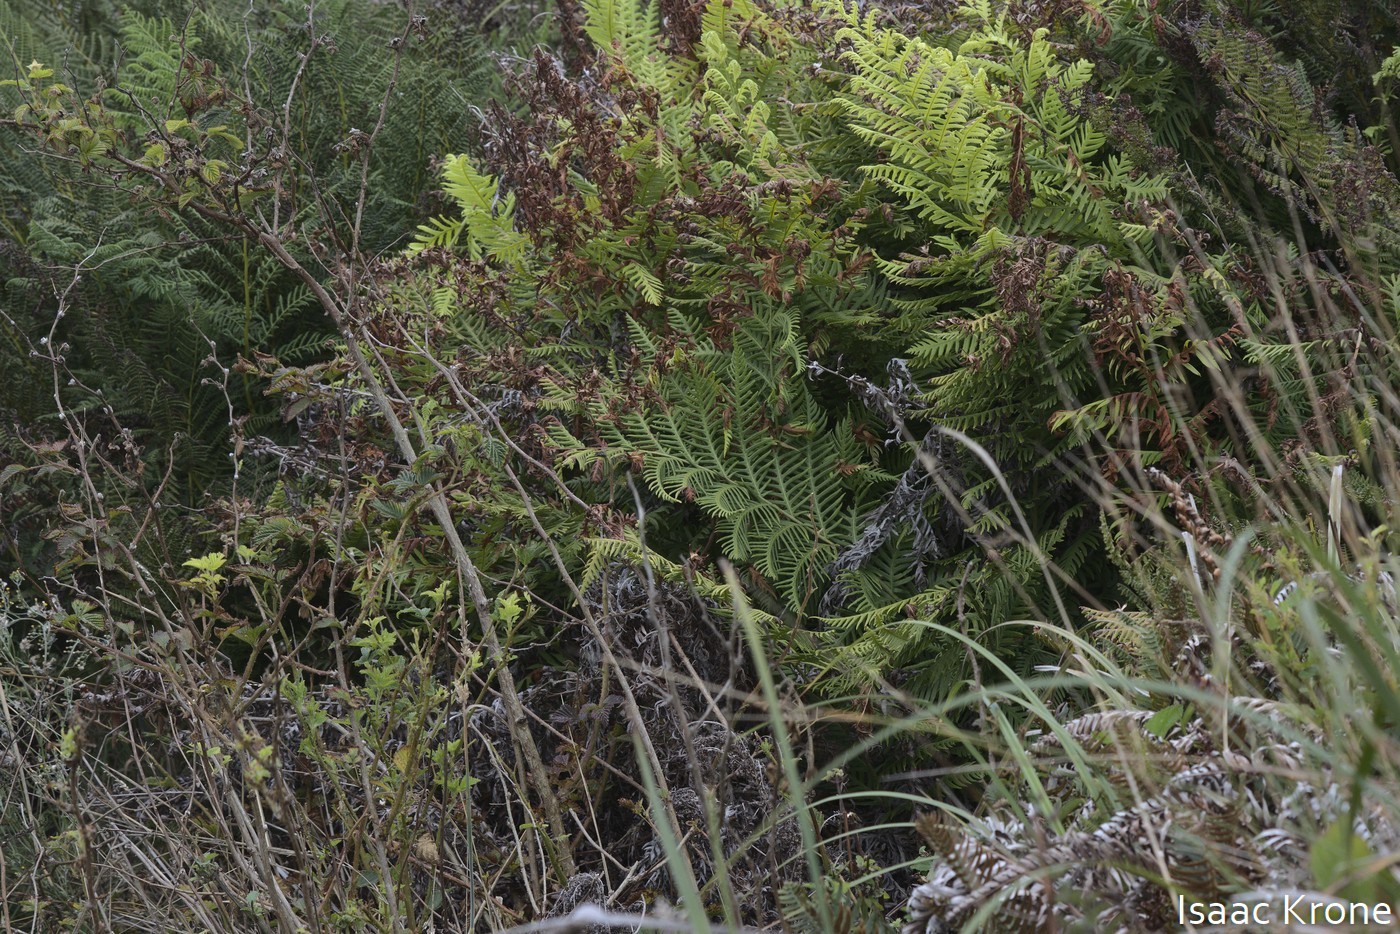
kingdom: Plantae
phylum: Tracheophyta
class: Polypodiopsida
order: Polypodiales
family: Blechnaceae
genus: Woodwardia
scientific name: Woodwardia fimbriata
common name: Giant chain fern
